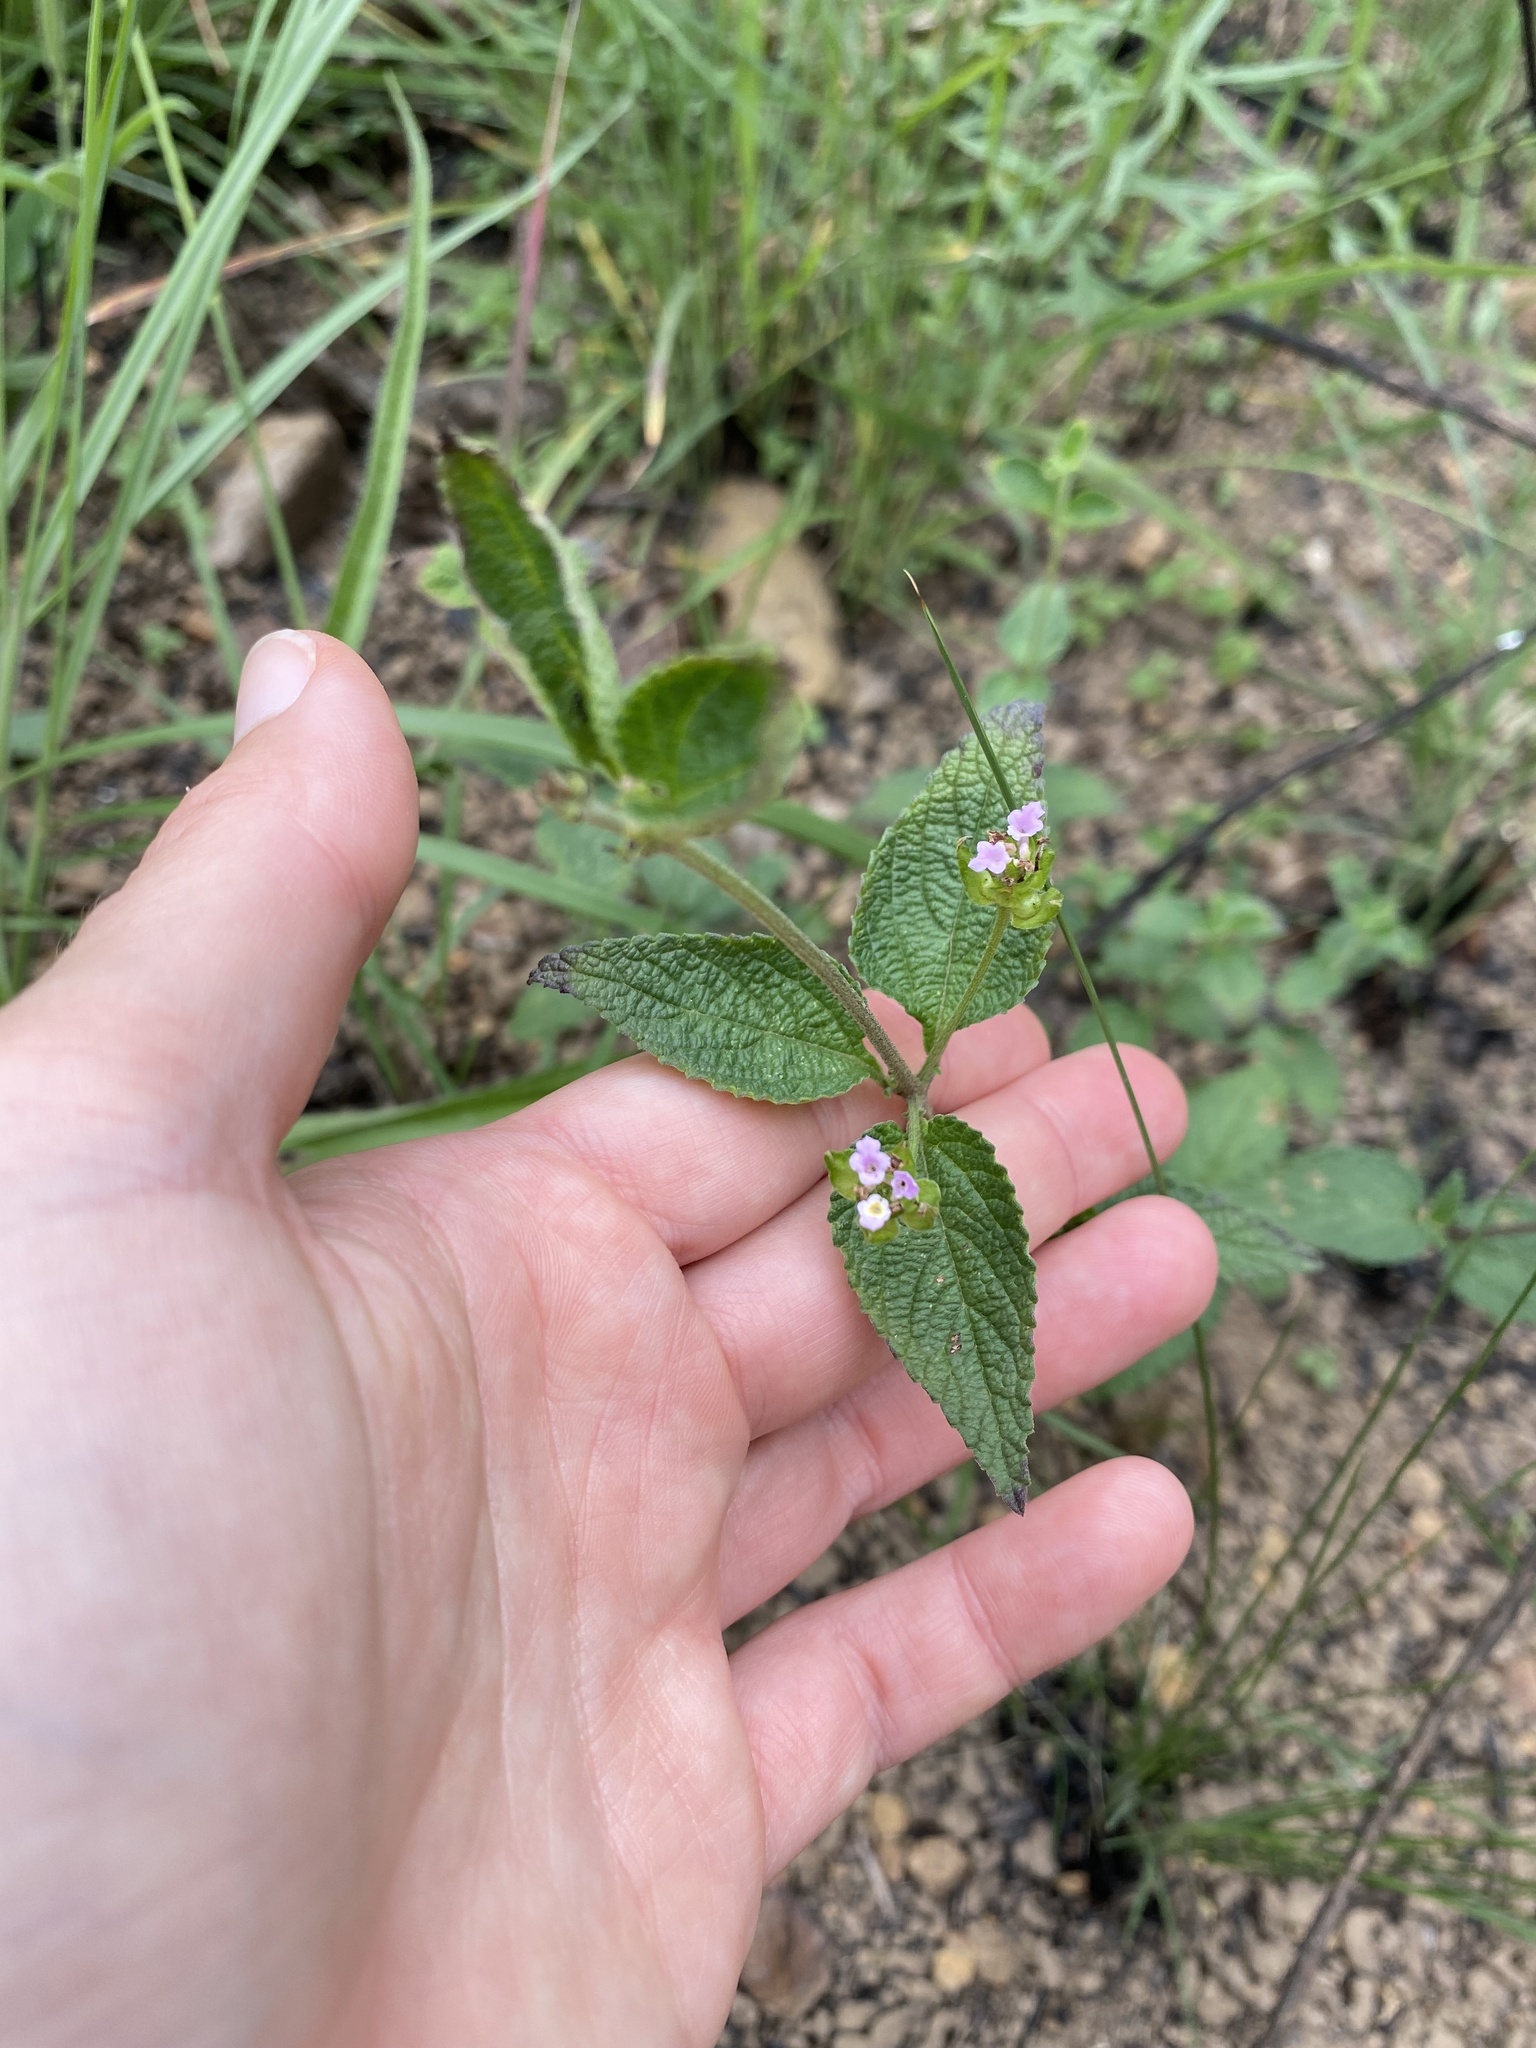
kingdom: Plantae
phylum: Tracheophyta
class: Magnoliopsida
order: Lamiales
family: Verbenaceae
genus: Lantana
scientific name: Lantana rugosa
